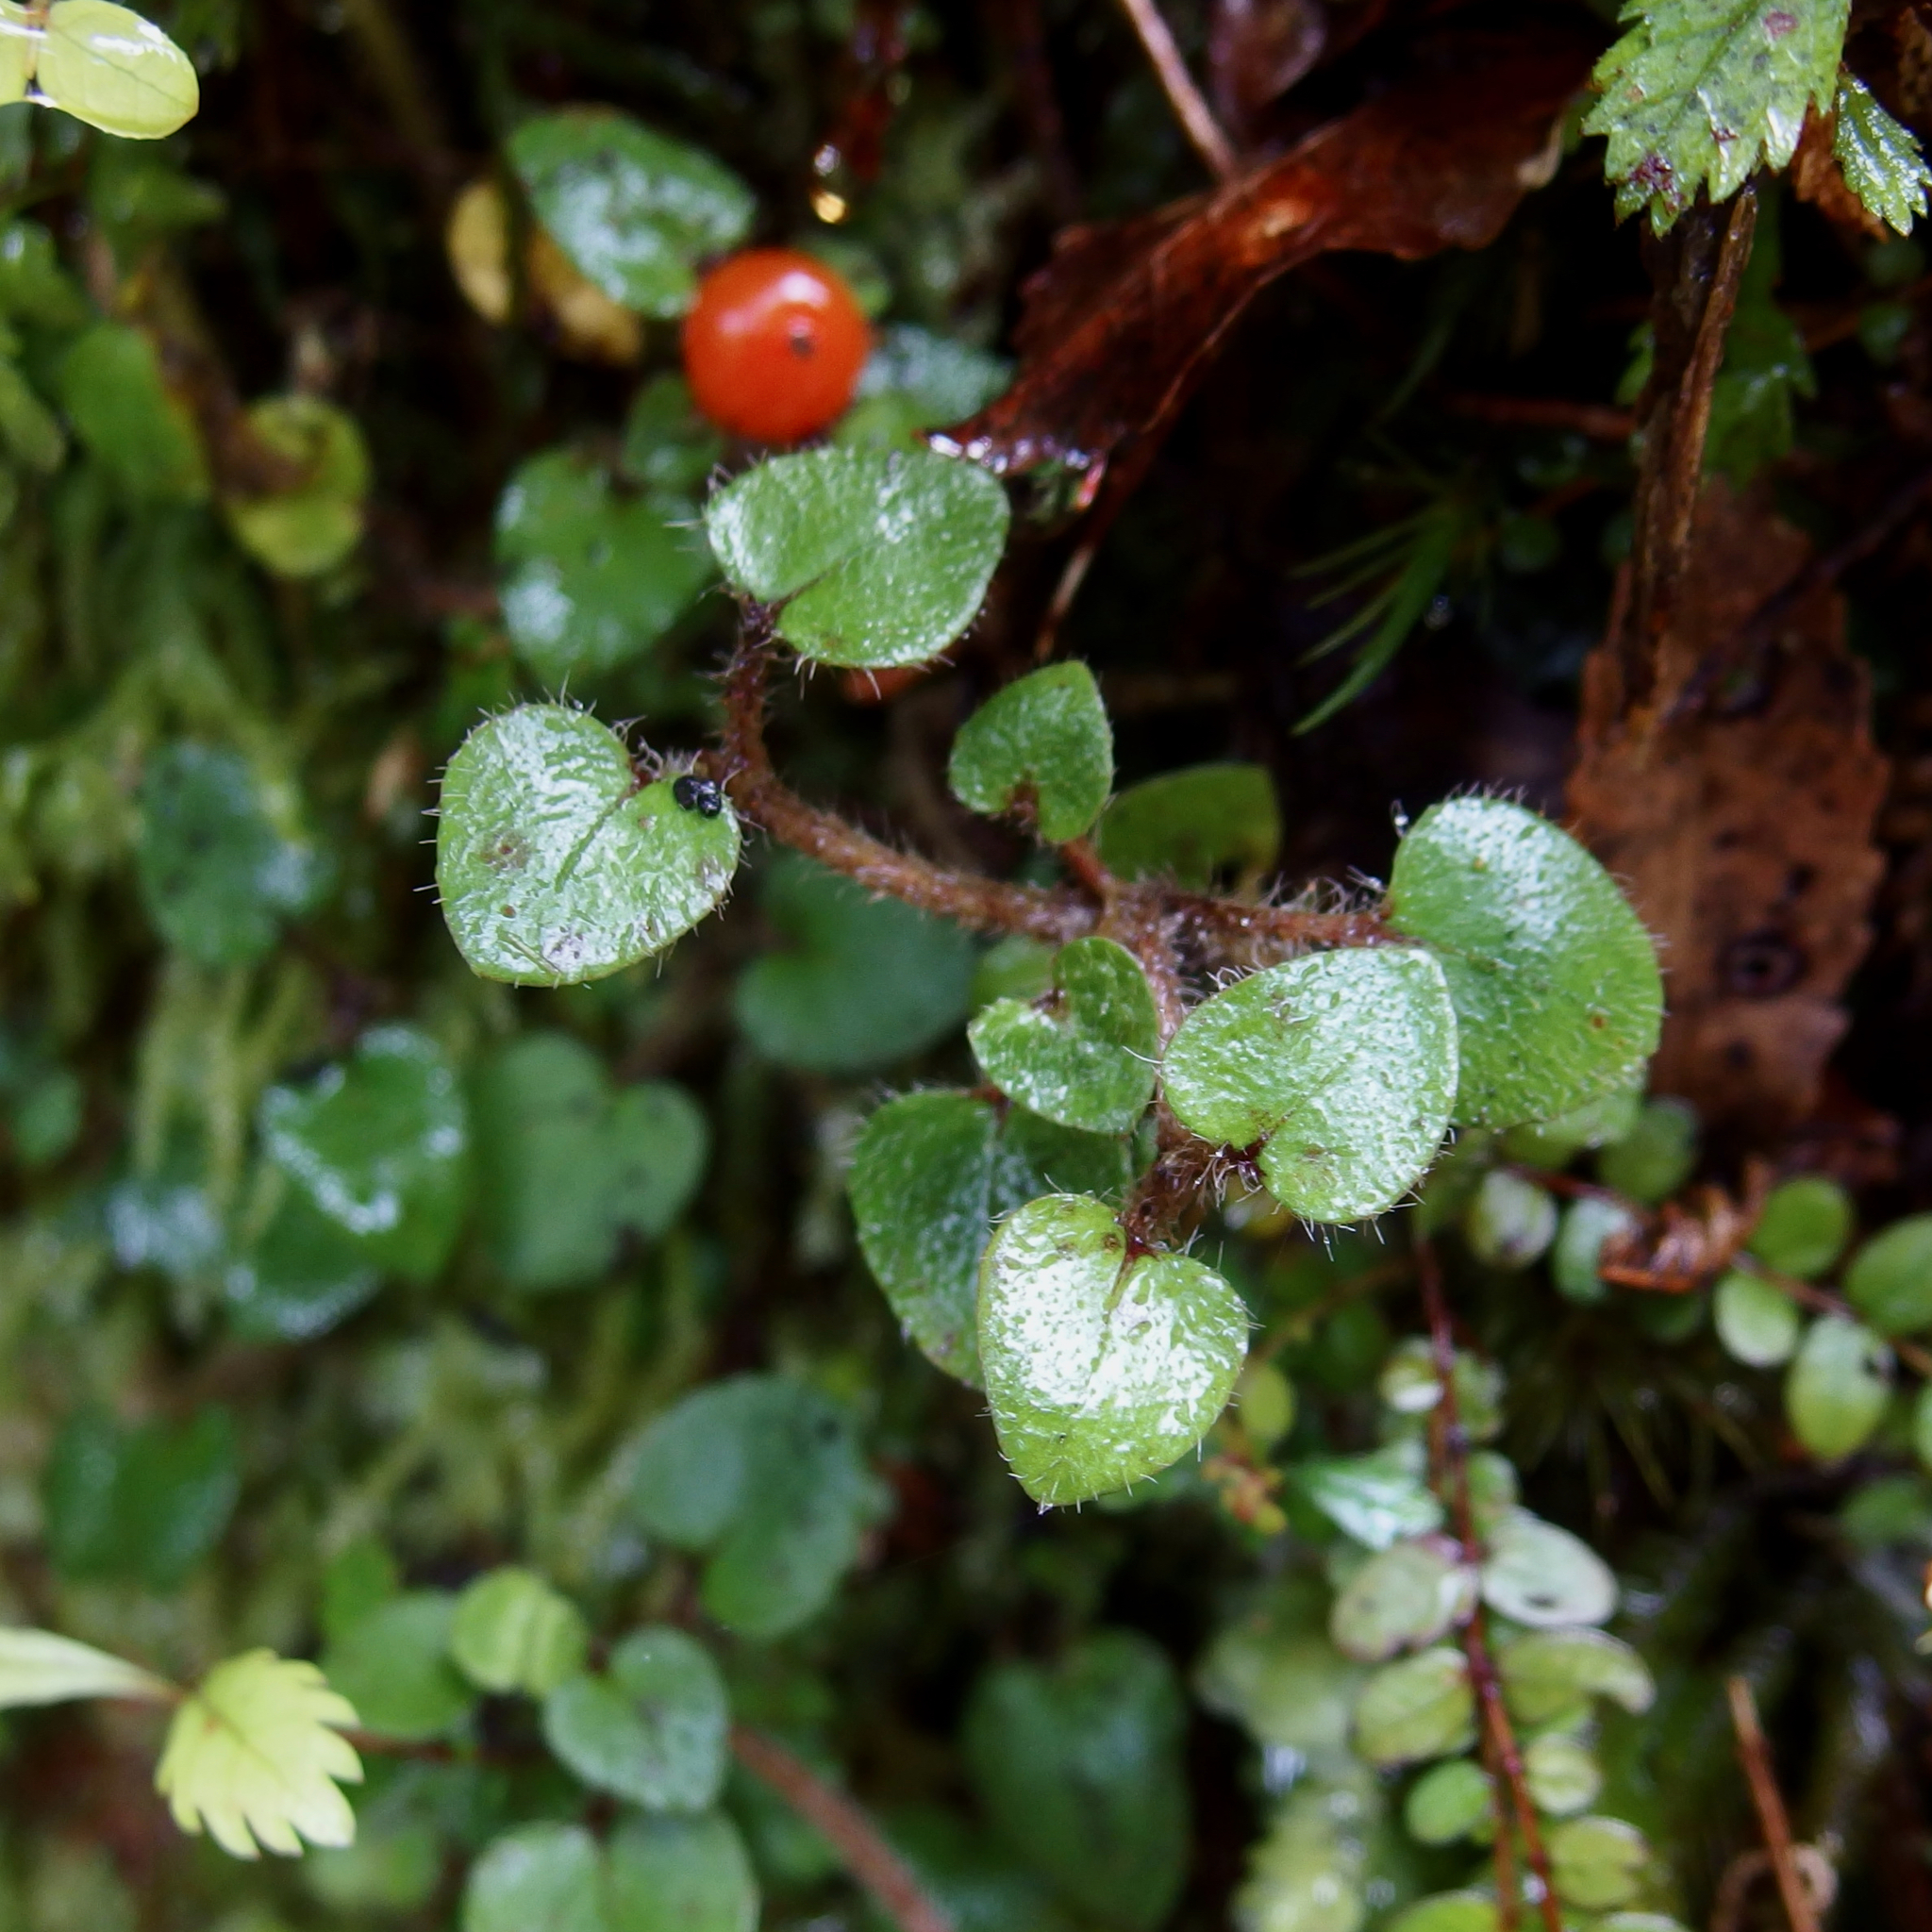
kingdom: Plantae
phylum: Tracheophyta
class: Magnoliopsida
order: Gentianales
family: Rubiaceae
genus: Nertera
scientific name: Nertera villosa
